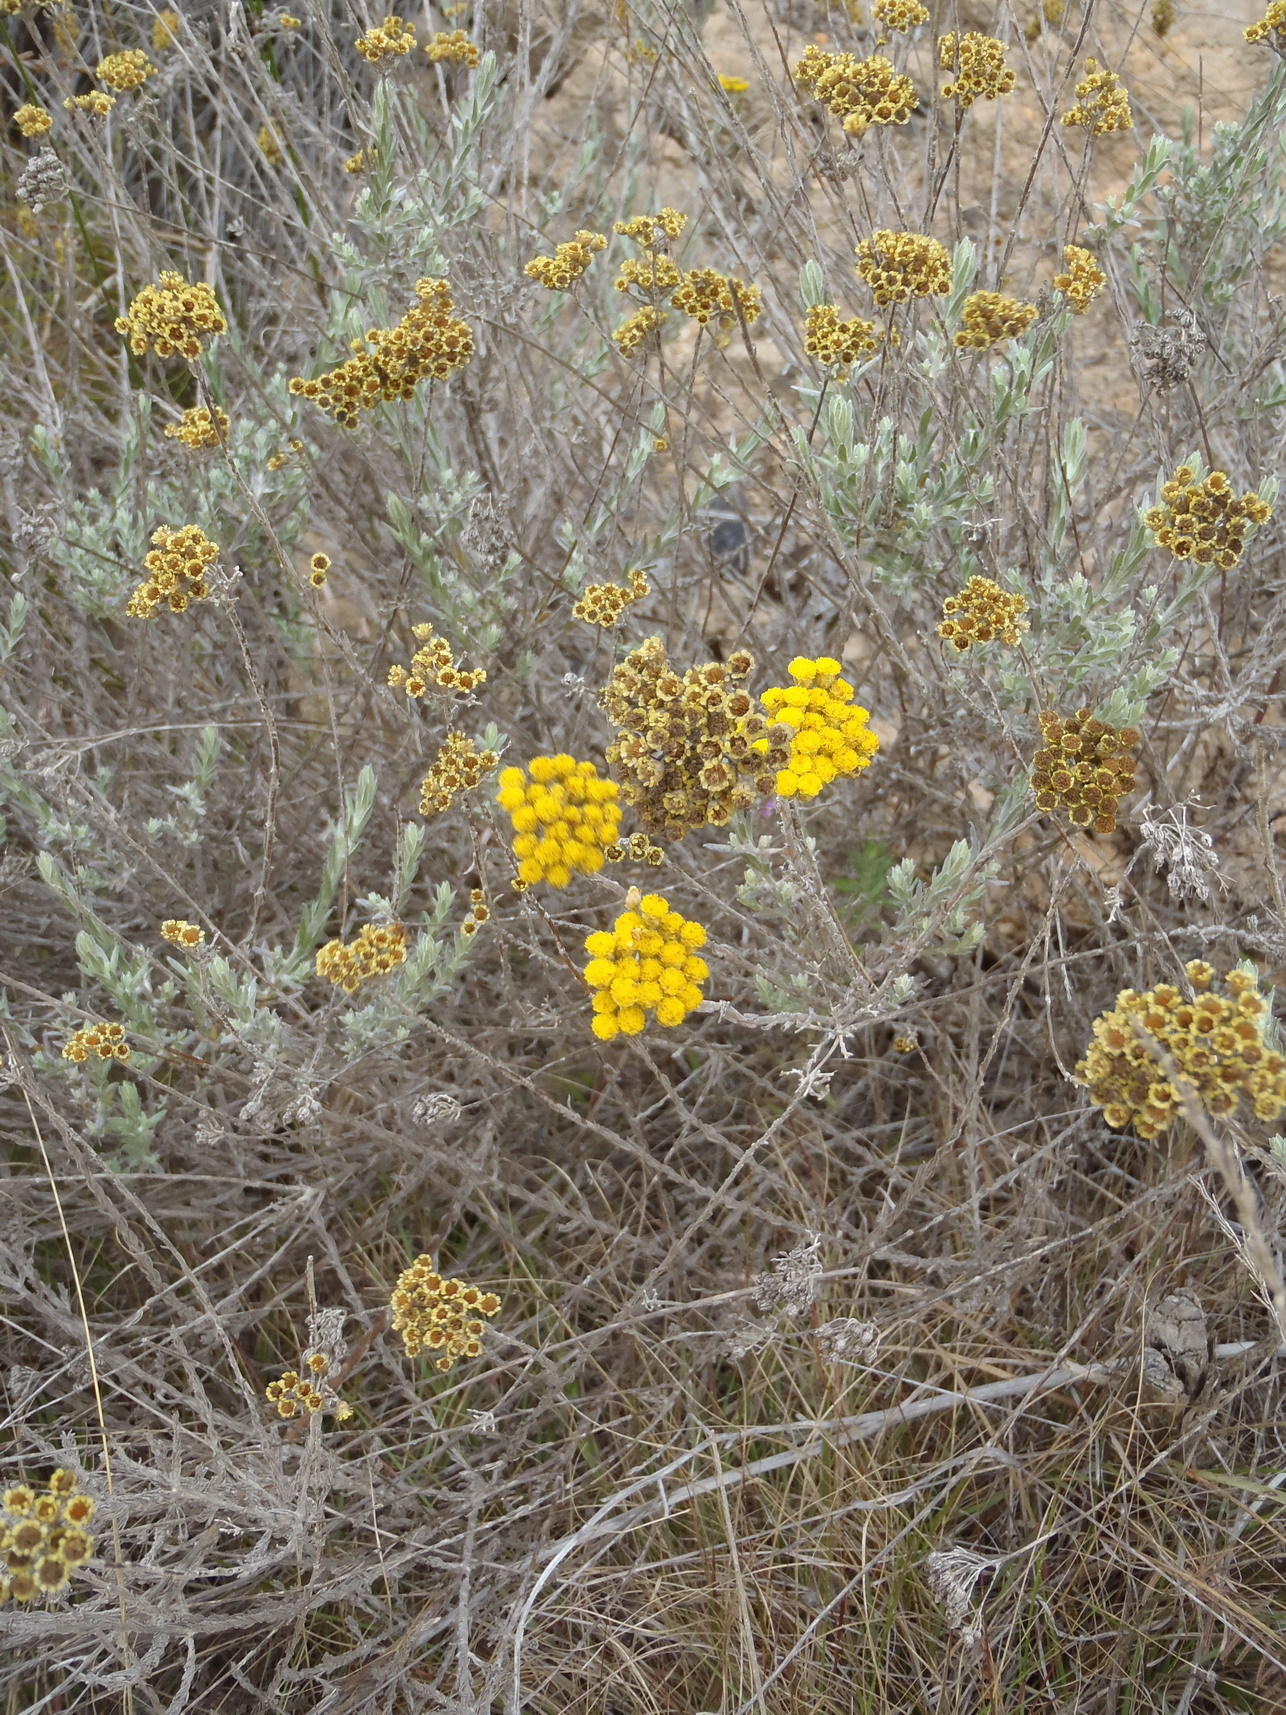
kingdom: Plantae
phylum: Tracheophyta
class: Magnoliopsida
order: Asterales
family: Asteraceae
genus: Helichrysum
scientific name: Helichrysum anomalum
